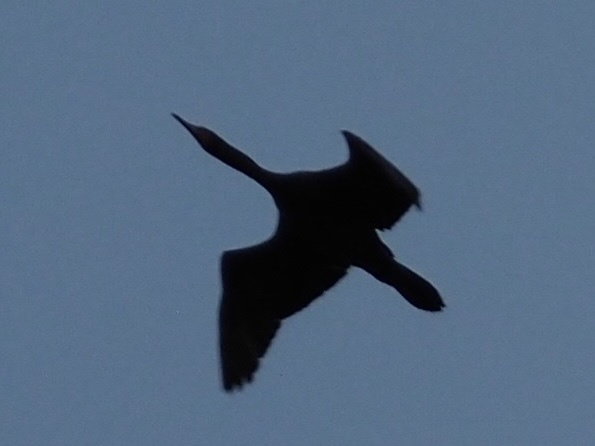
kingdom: Animalia
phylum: Chordata
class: Aves
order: Suliformes
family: Phalacrocoracidae
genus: Phalacrocorax
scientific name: Phalacrocorax auritus
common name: Double-crested cormorant
